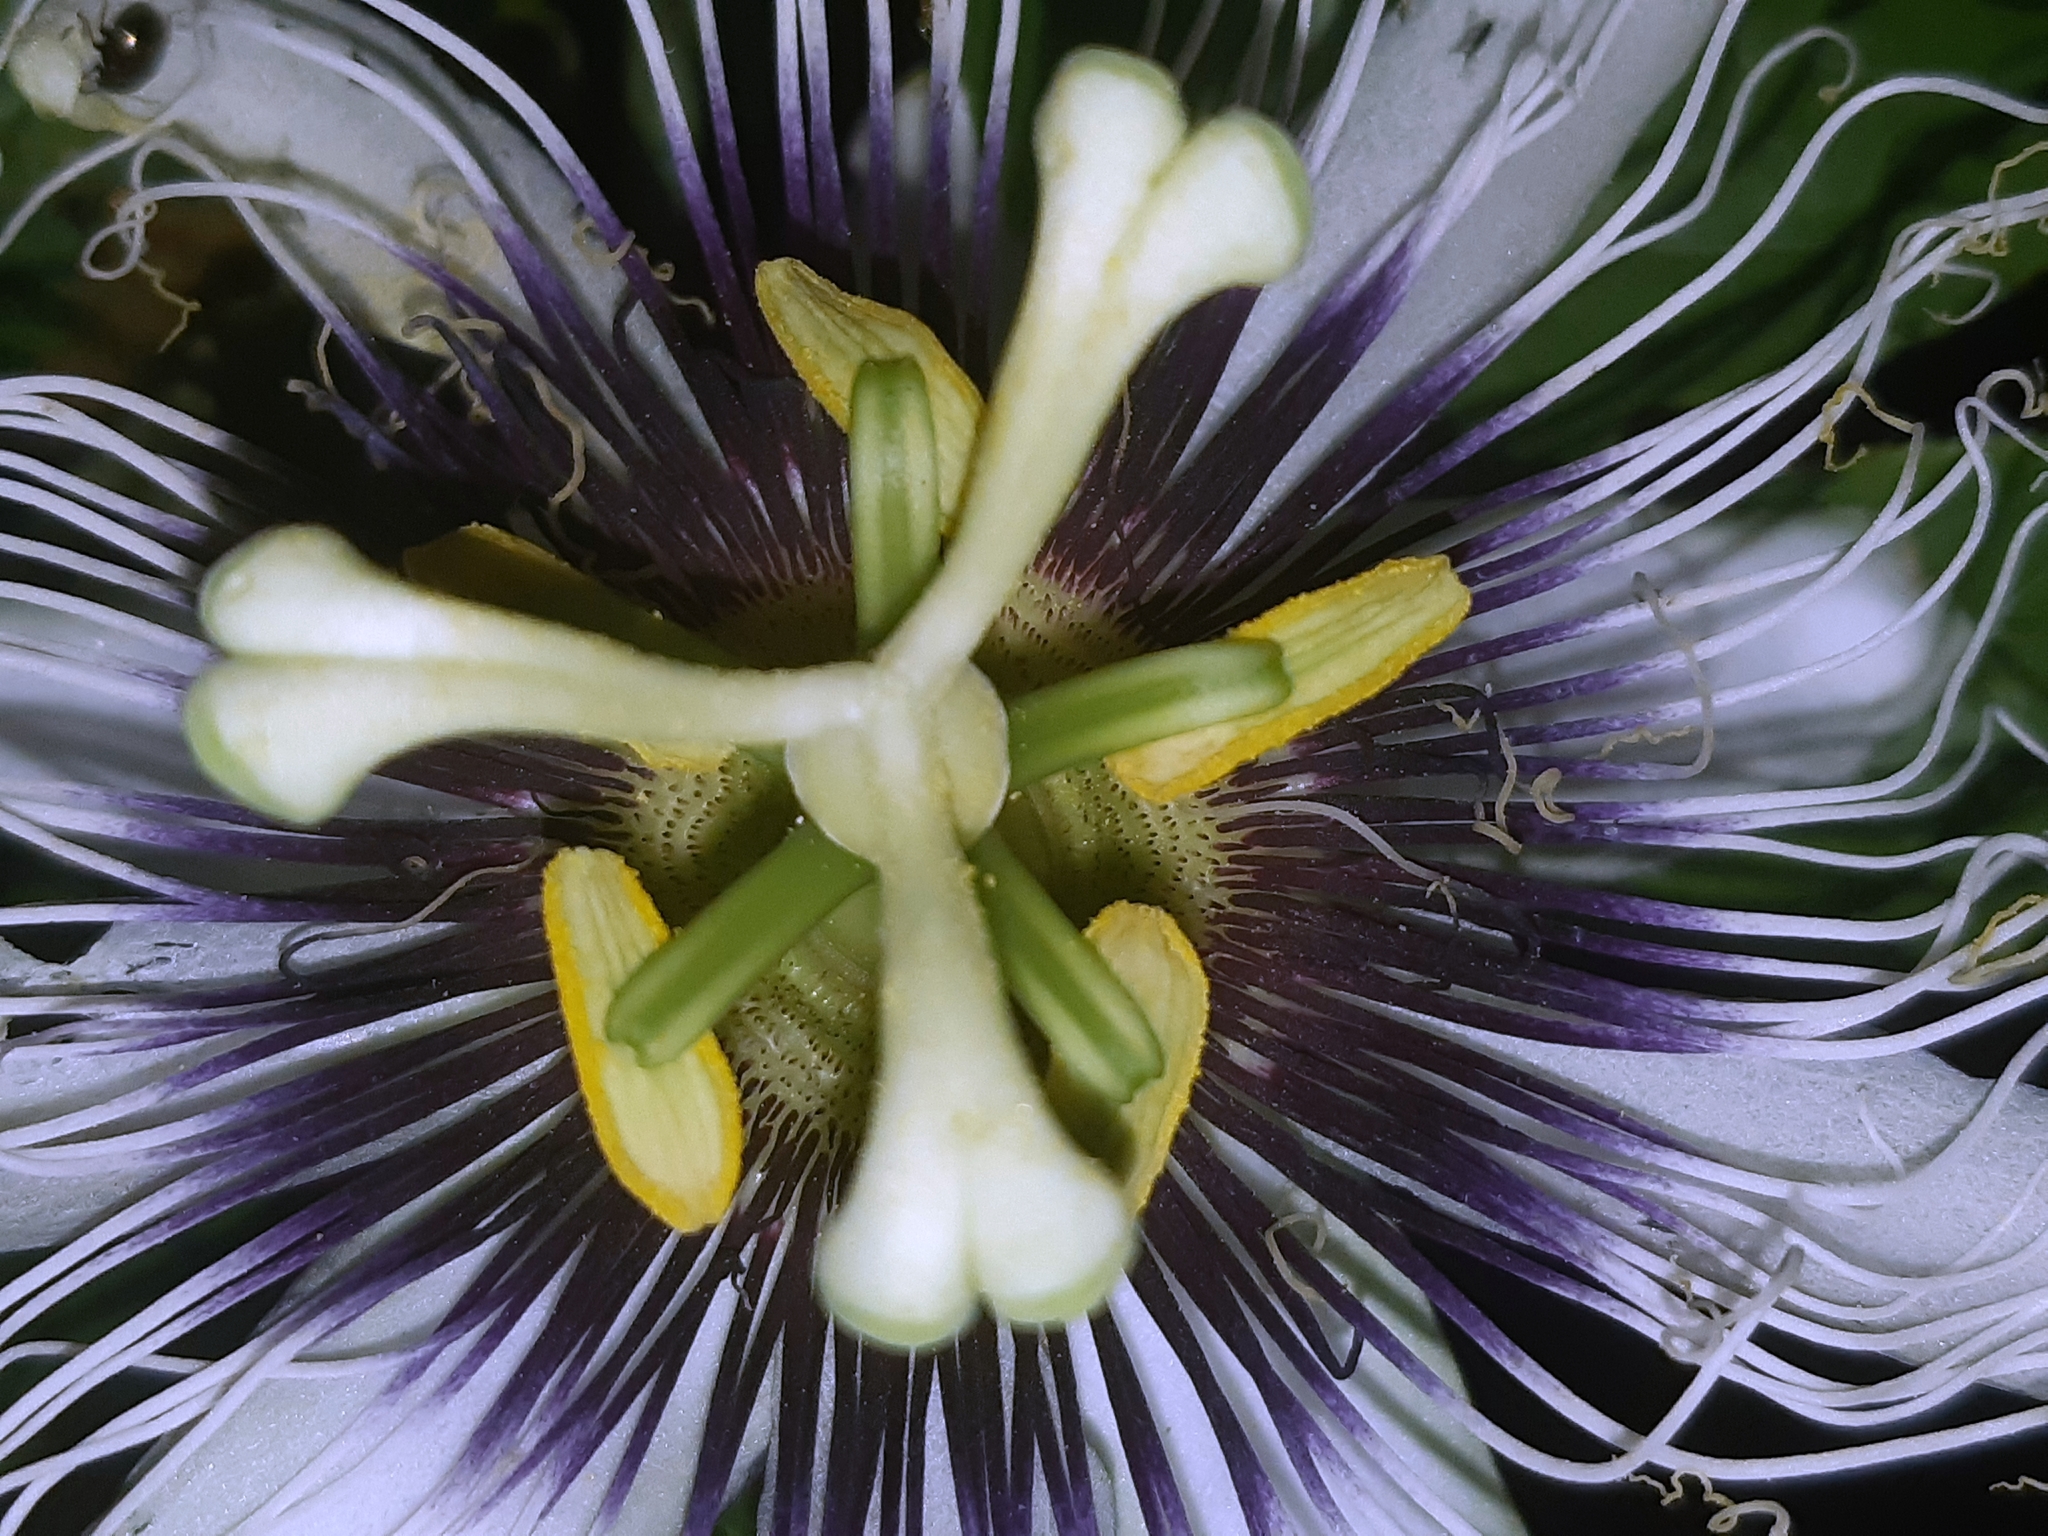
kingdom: Plantae
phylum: Tracheophyta
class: Magnoliopsida
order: Malpighiales
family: Passifloraceae
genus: Passiflora
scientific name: Passiflora edulis
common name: Purple granadilla
